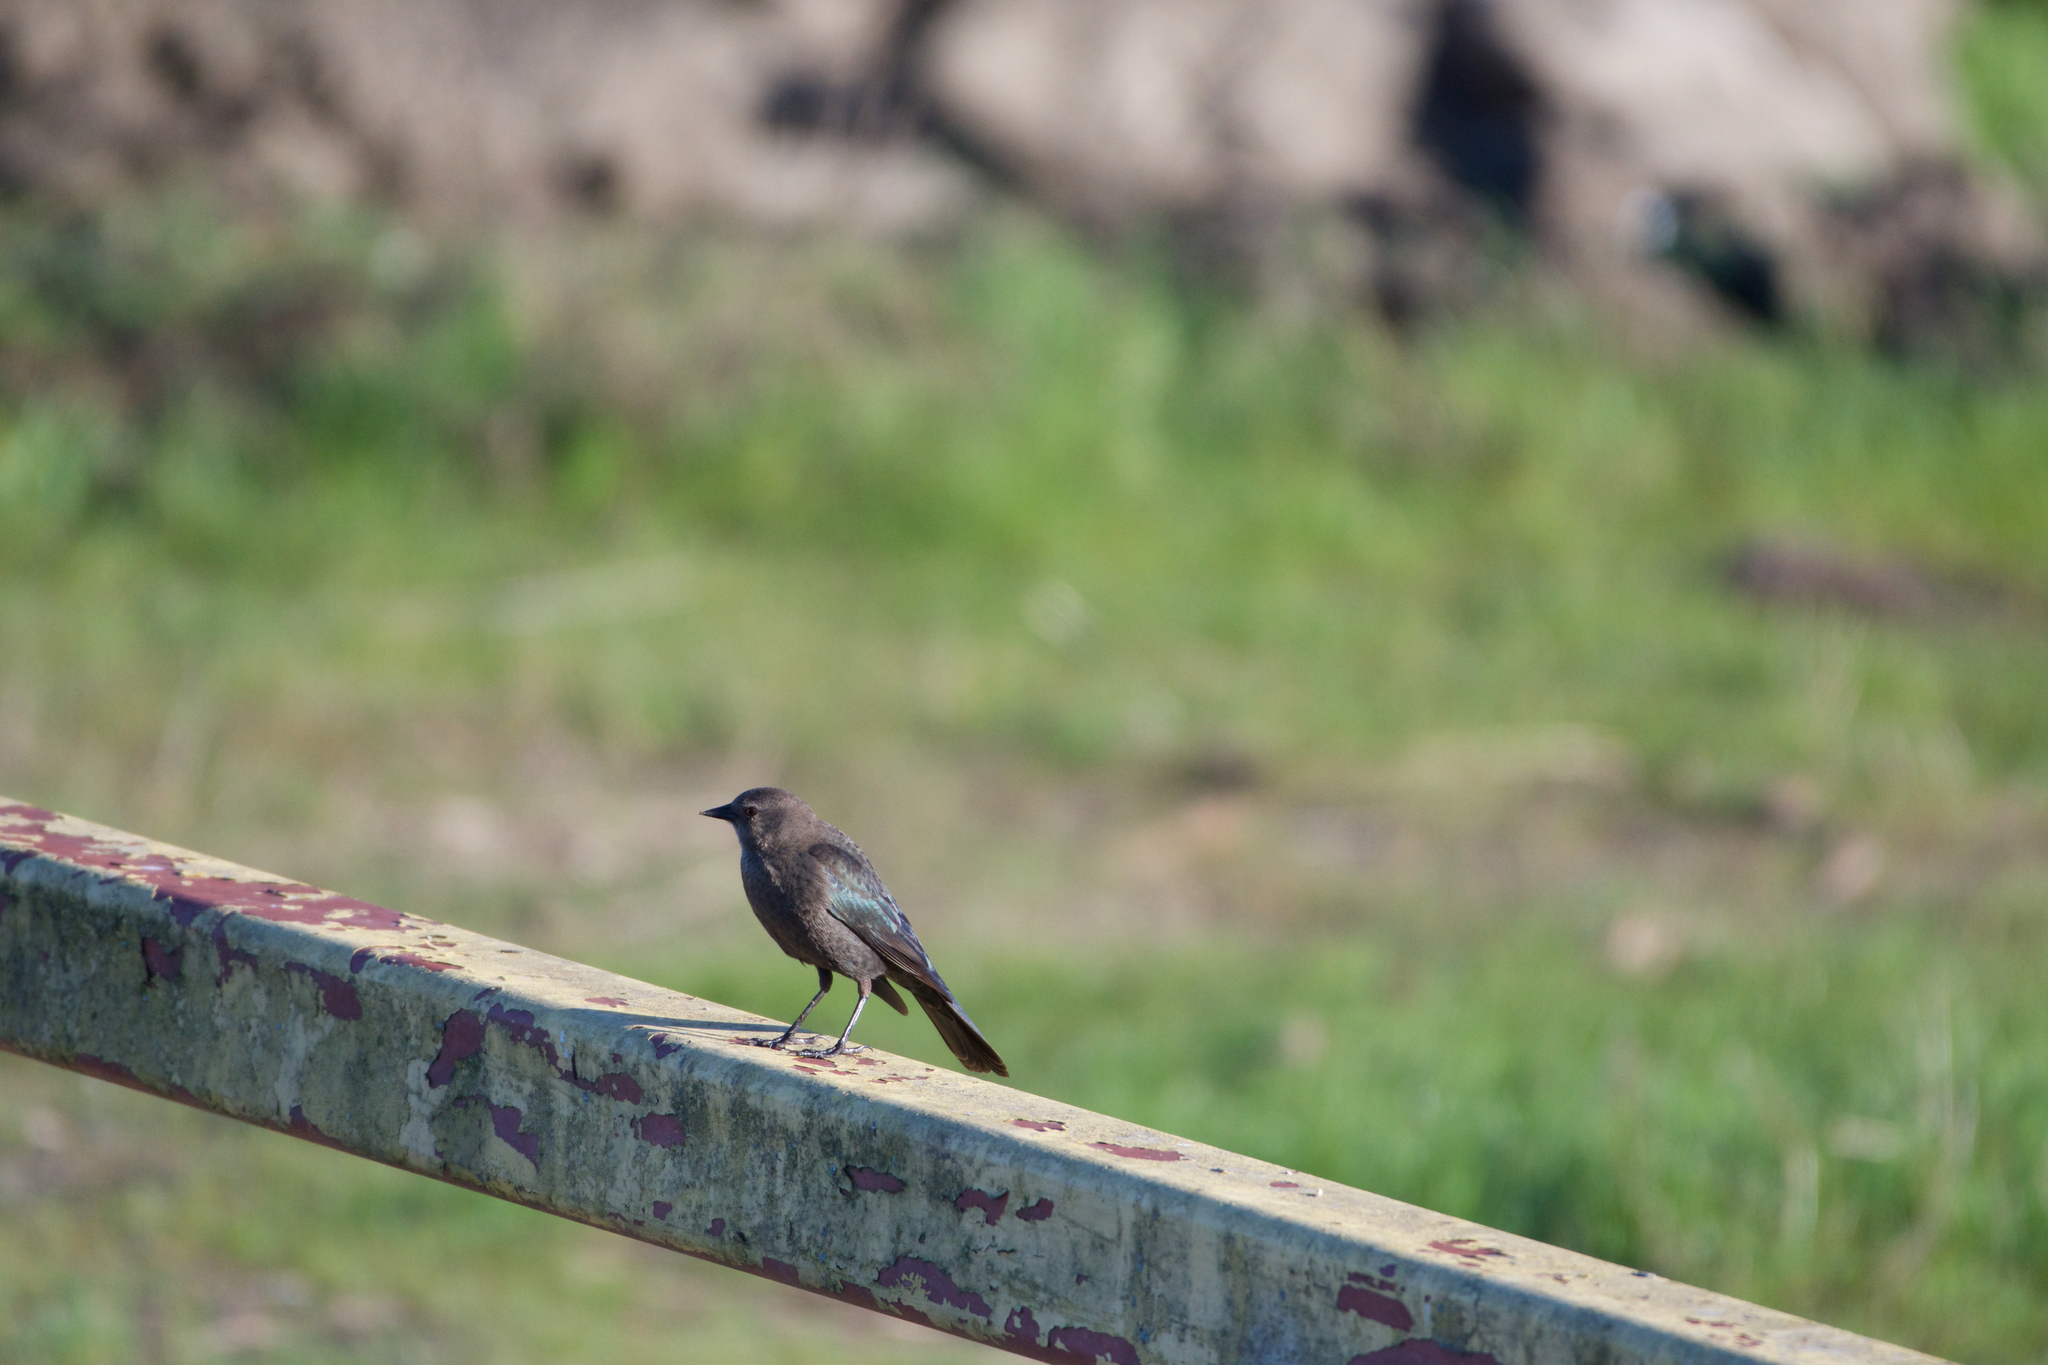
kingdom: Animalia
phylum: Chordata
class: Aves
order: Passeriformes
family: Icteridae
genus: Euphagus
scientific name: Euphagus cyanocephalus
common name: Brewer's blackbird
